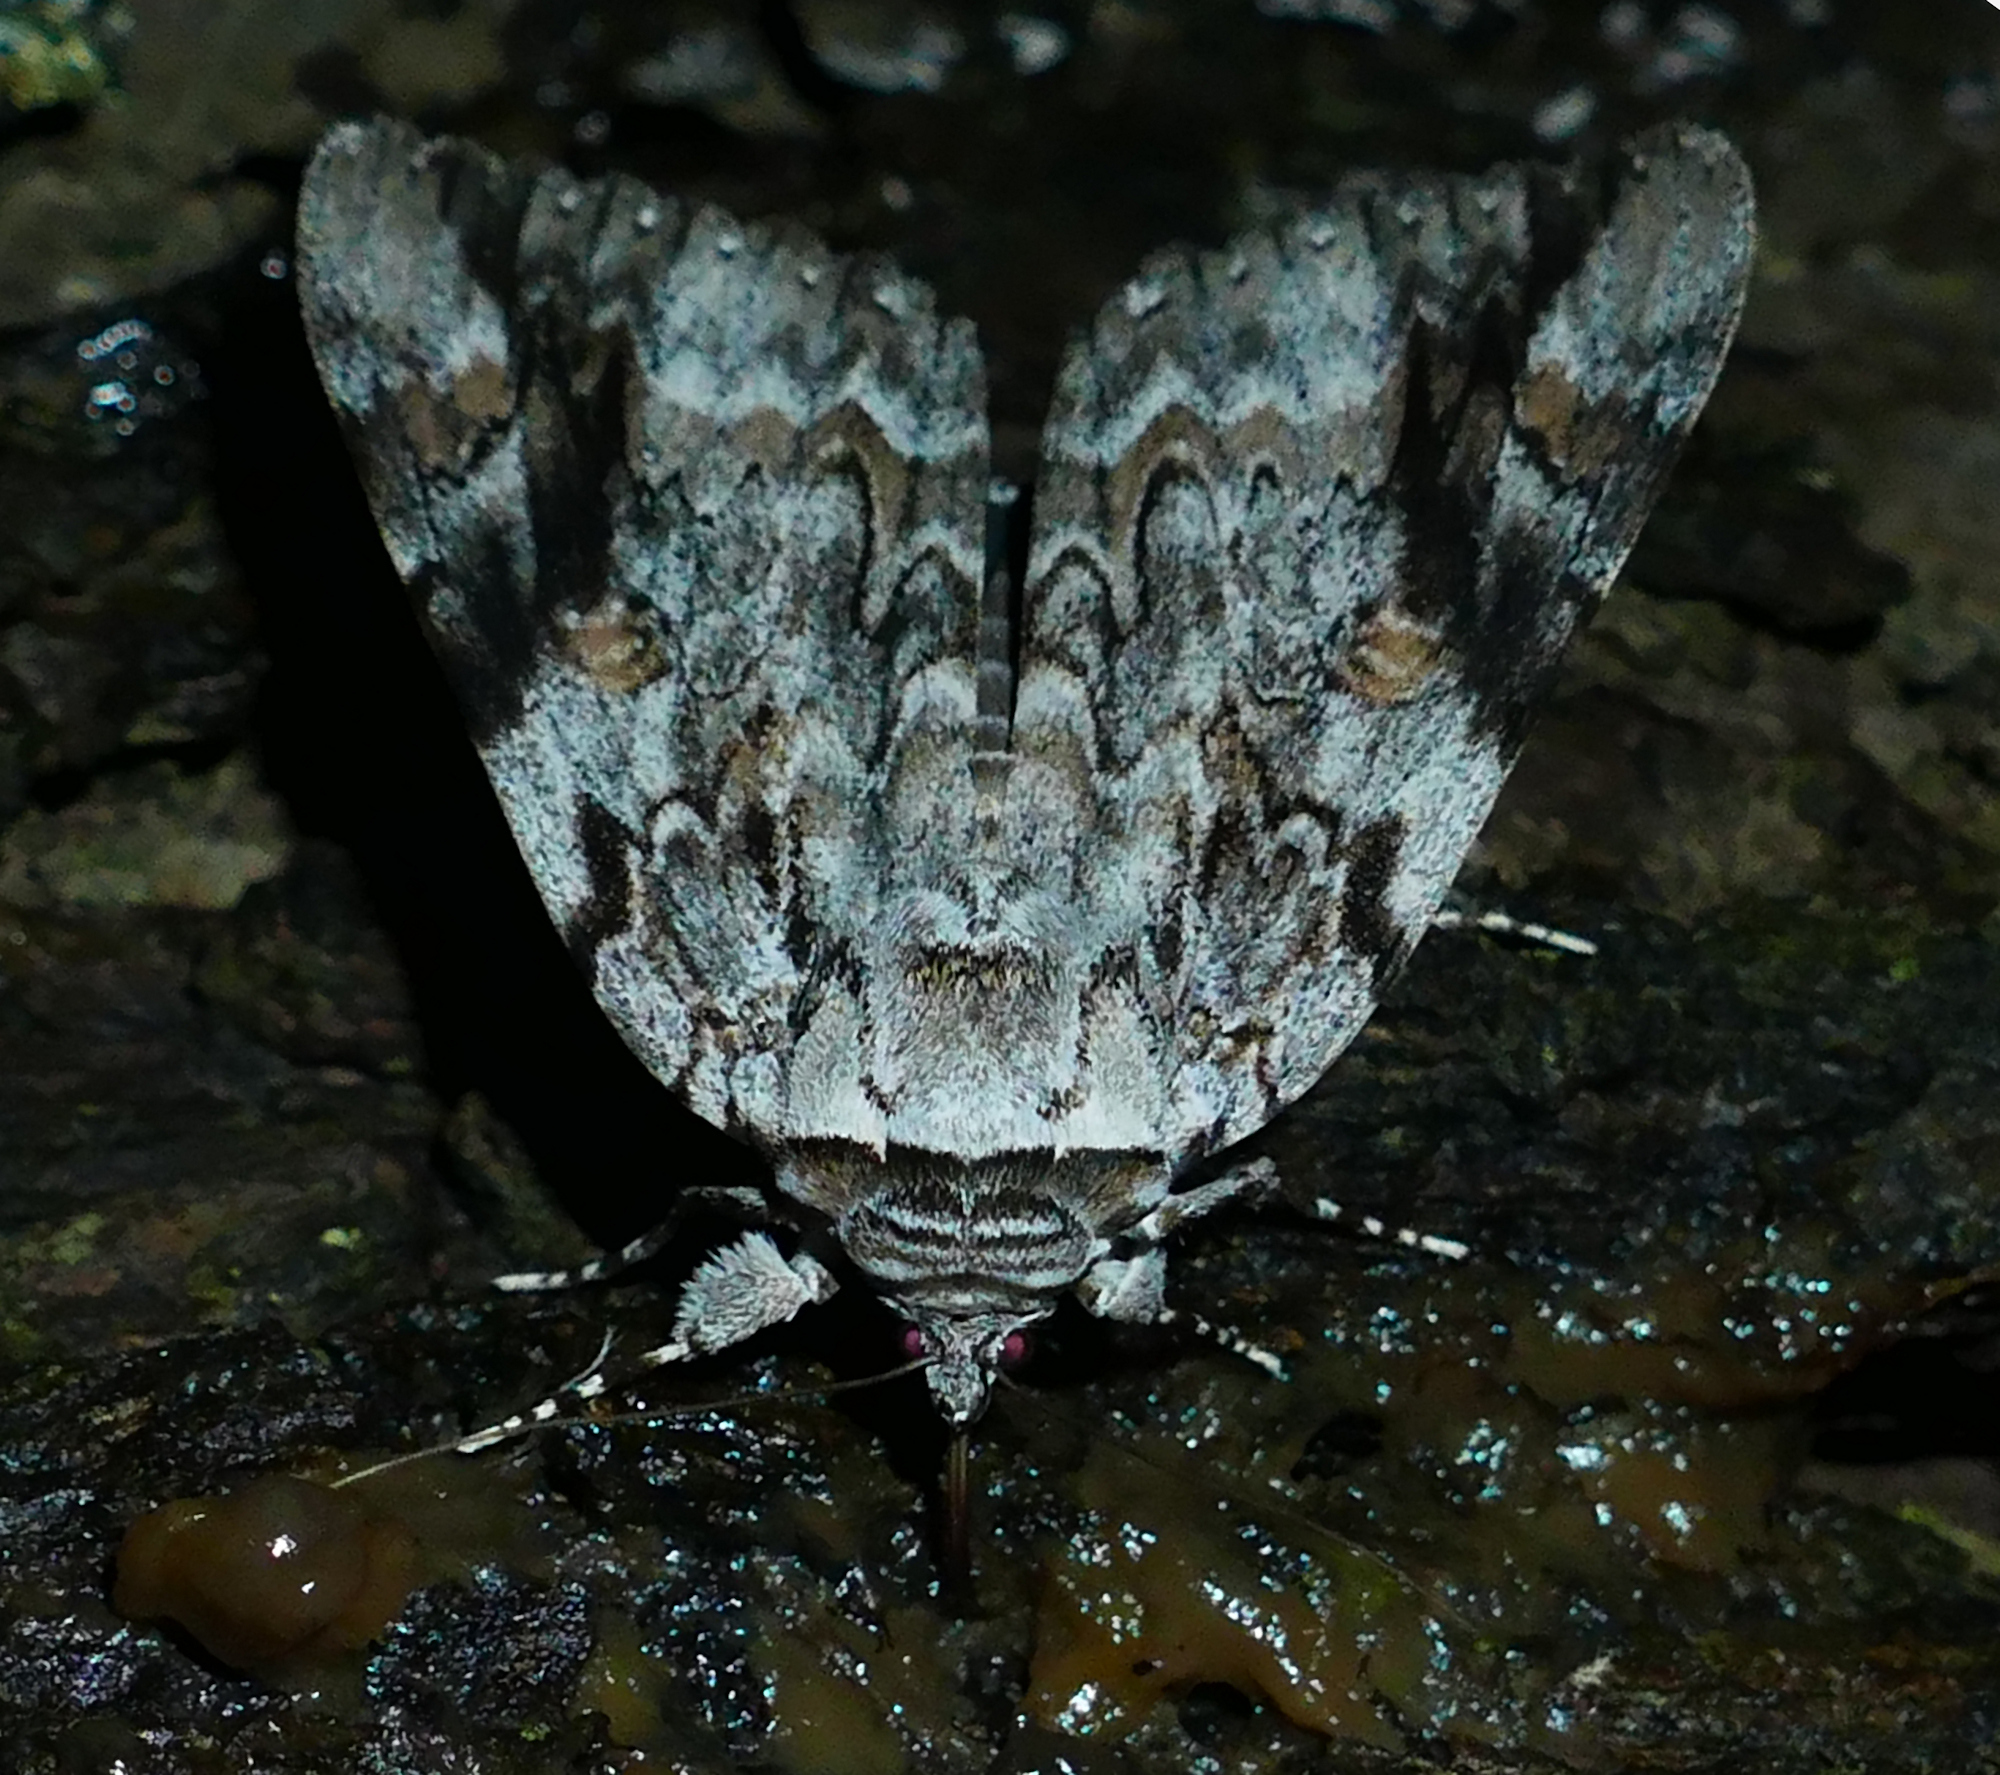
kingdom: Animalia
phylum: Arthropoda
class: Insecta
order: Lepidoptera
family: Erebidae
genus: Catocala
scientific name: Catocala maestosa
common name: Sad underwing
